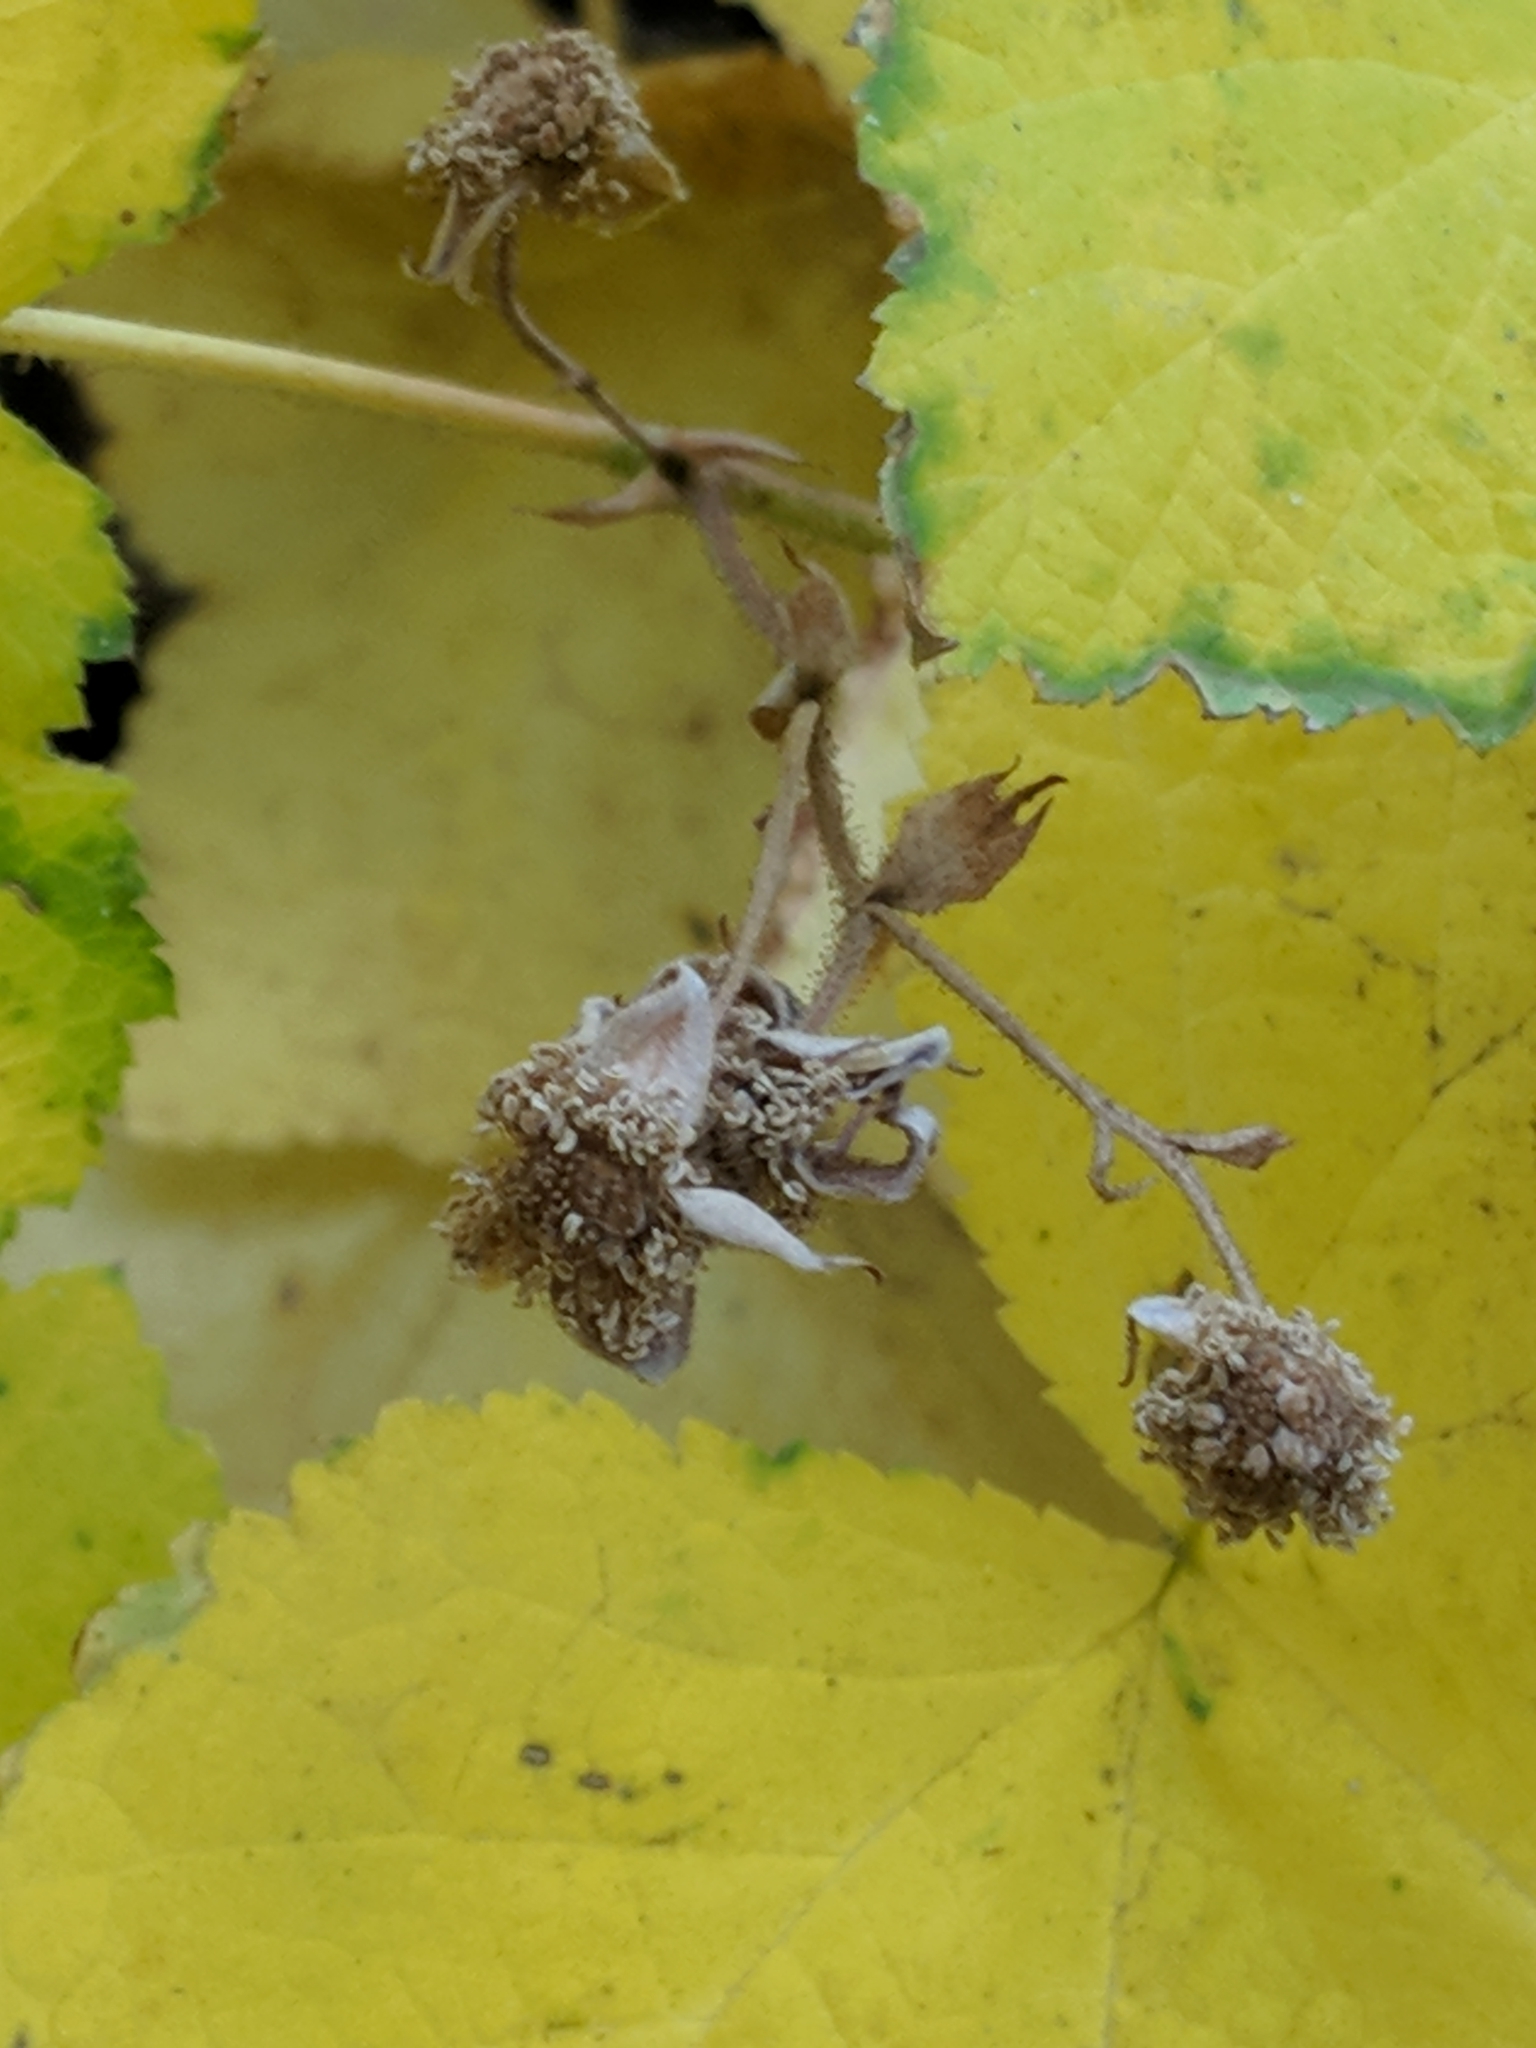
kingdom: Plantae
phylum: Tracheophyta
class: Magnoliopsida
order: Rosales
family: Rosaceae
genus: Rubus
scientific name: Rubus parviflorus
